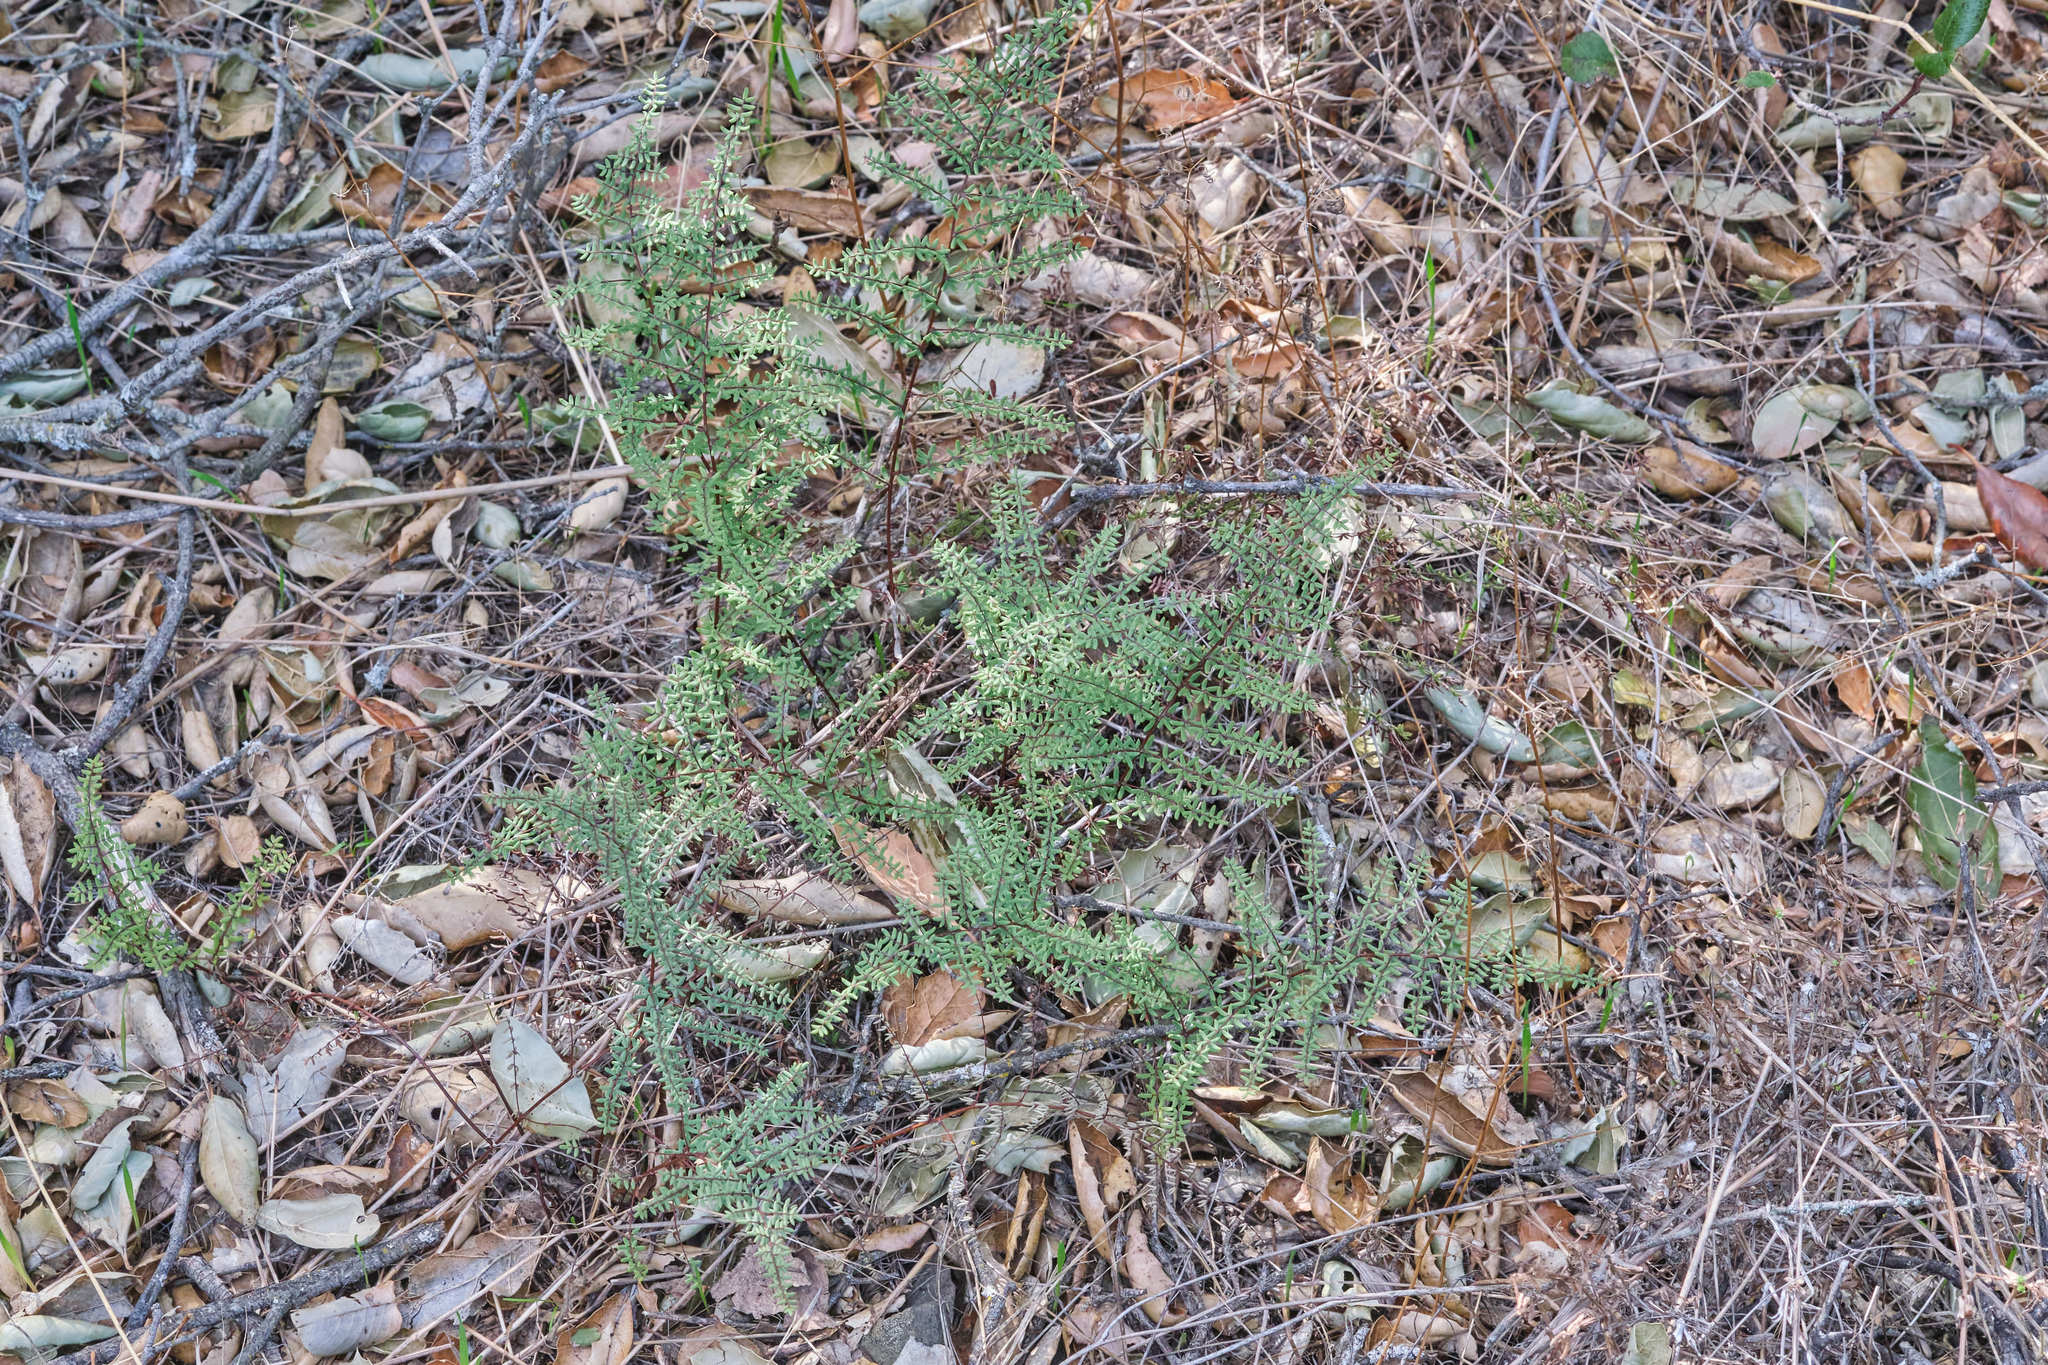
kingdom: Plantae
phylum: Tracheophyta
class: Polypodiopsida
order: Polypodiales
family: Pteridaceae
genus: Pellaea
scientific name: Pellaea mucronata
